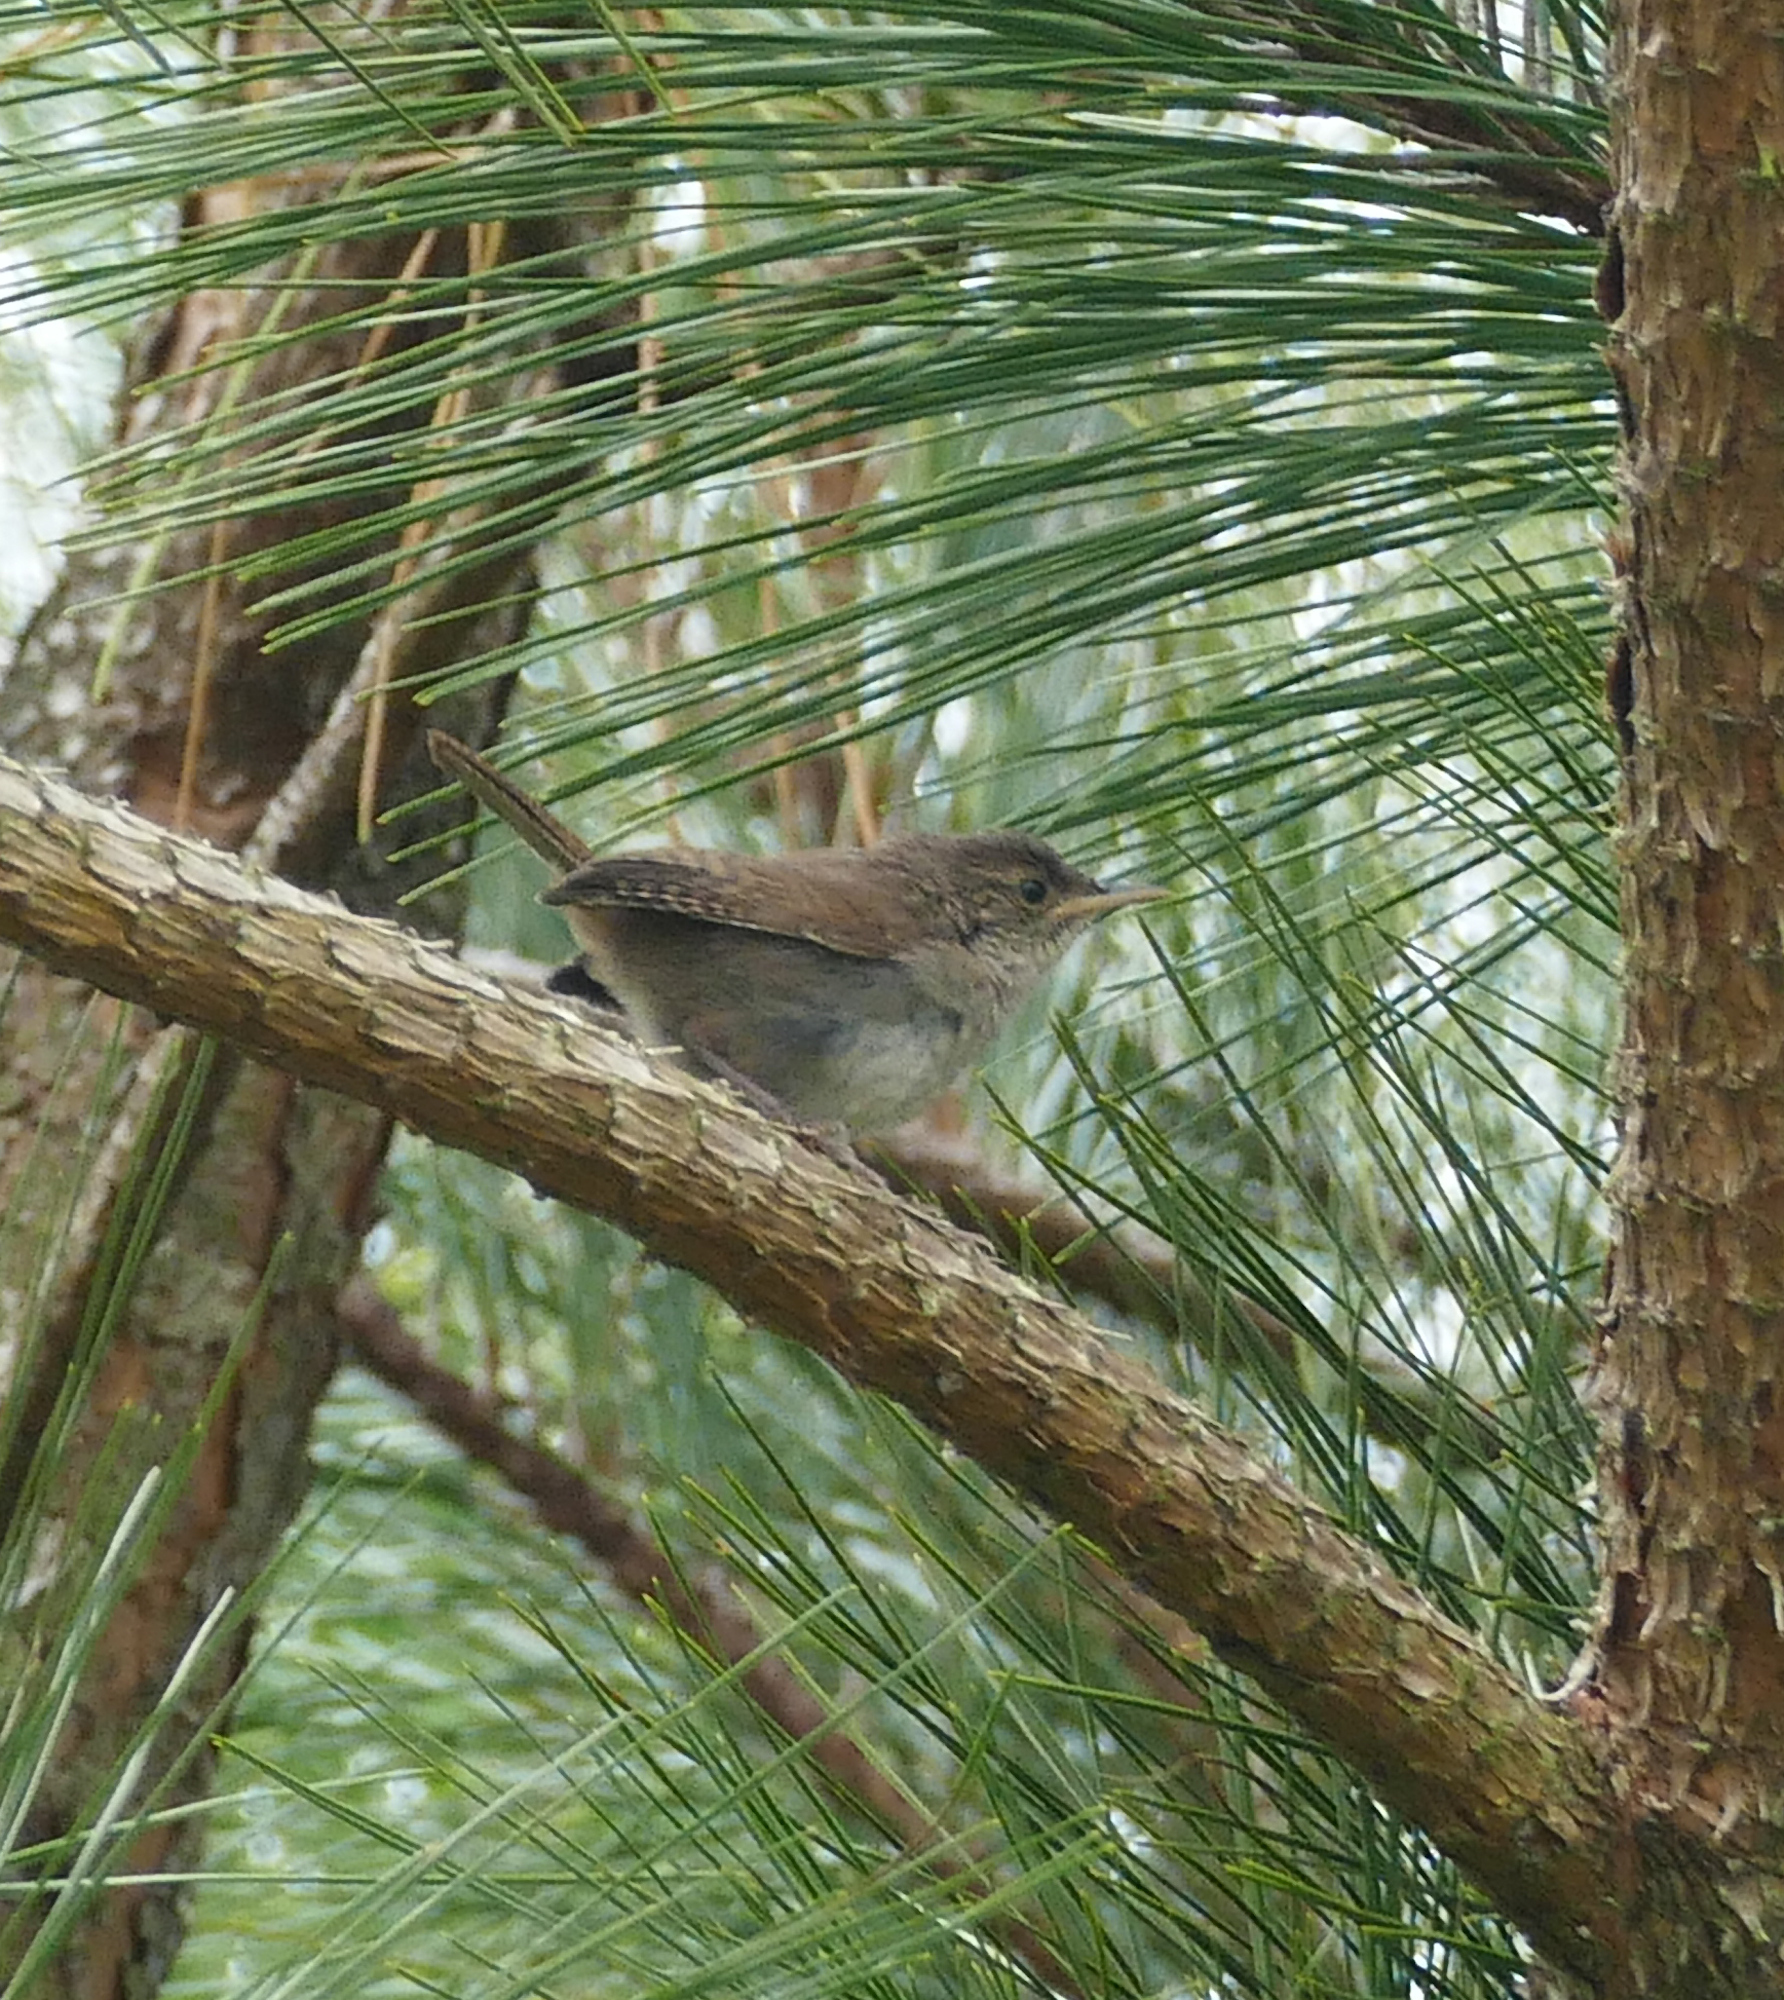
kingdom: Animalia
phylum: Chordata
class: Aves
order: Passeriformes
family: Troglodytidae
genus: Troglodytes
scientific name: Troglodytes aedon
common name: House wren
